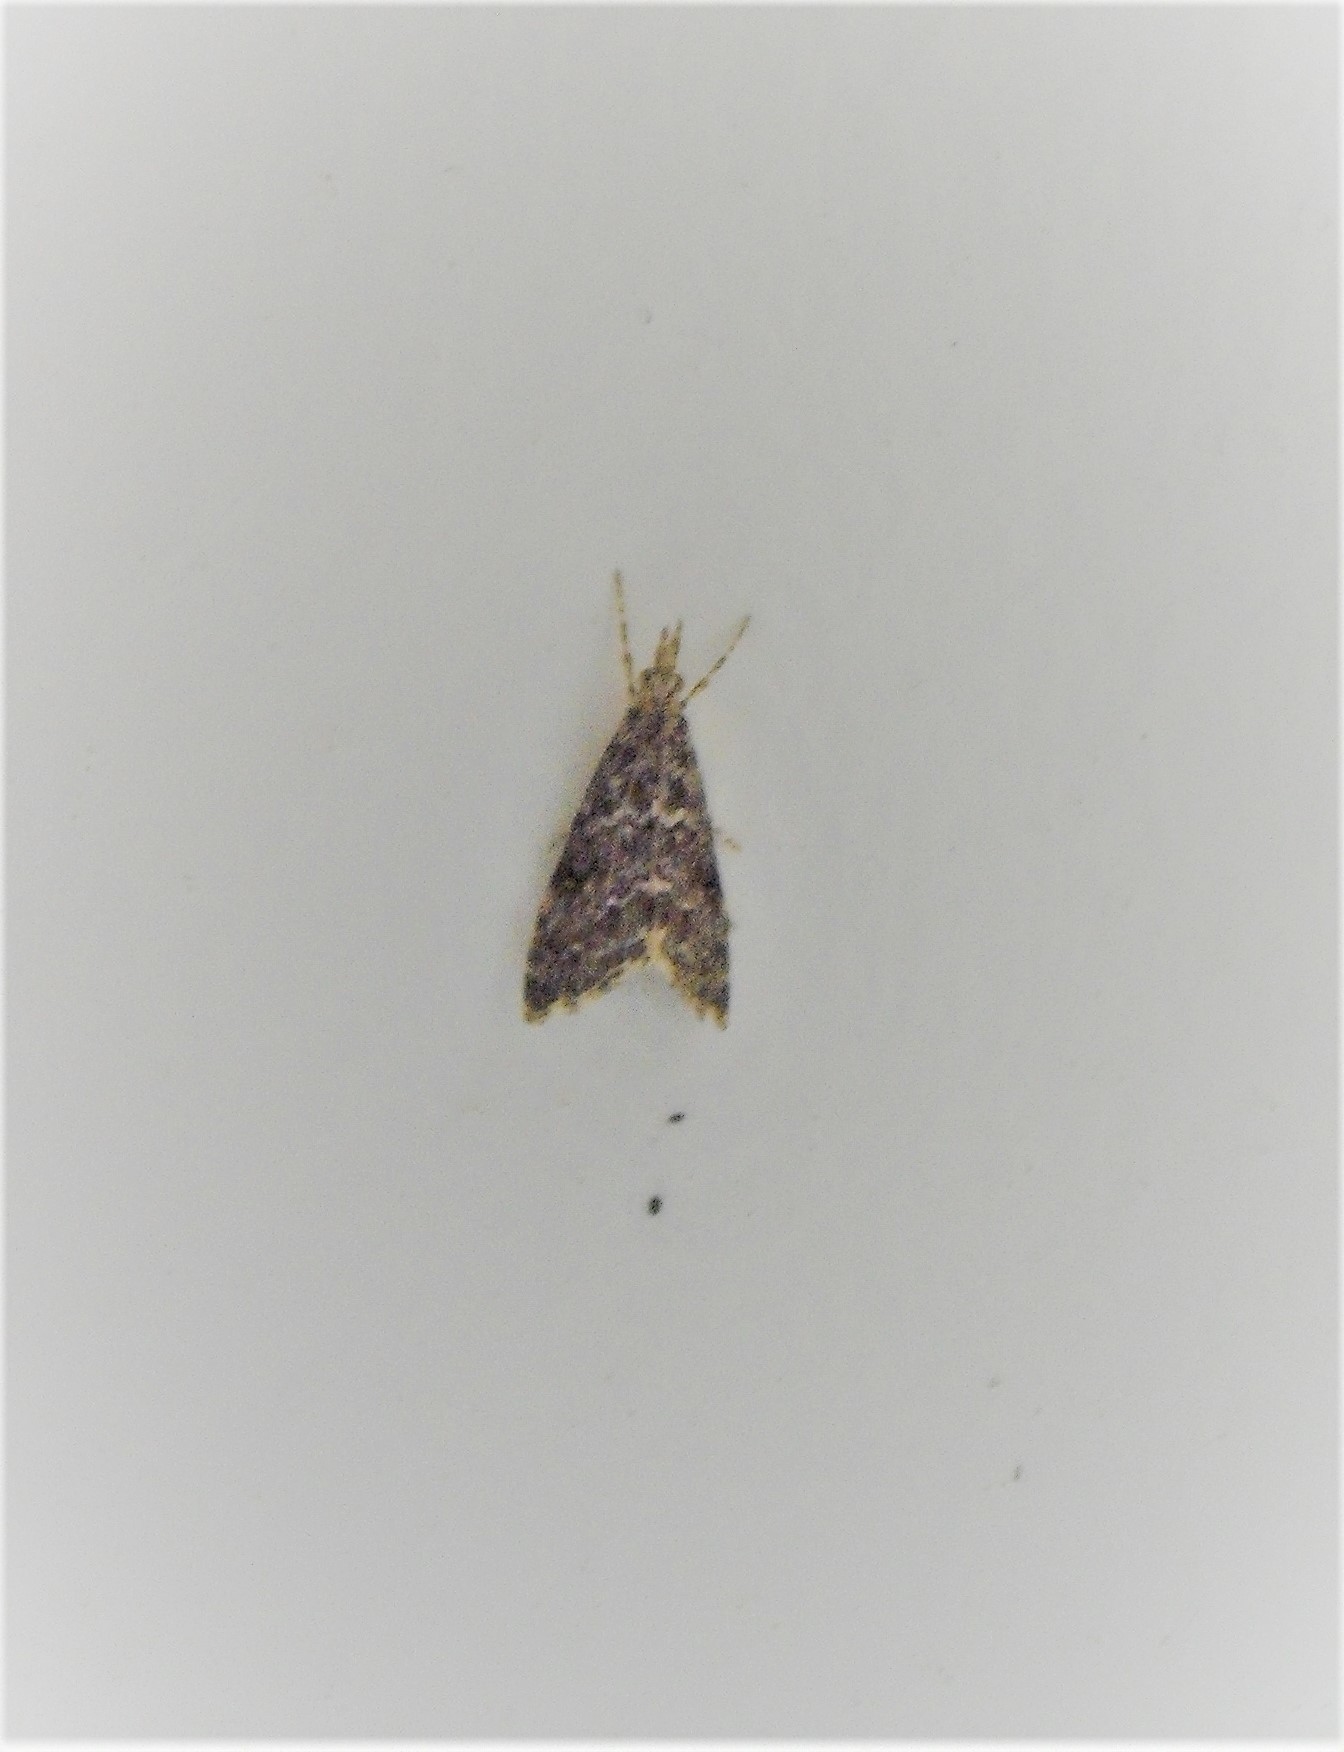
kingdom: Animalia
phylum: Arthropoda
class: Insecta
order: Lepidoptera
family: Crambidae
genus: Glaucocharis
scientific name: Glaucocharis elaina
